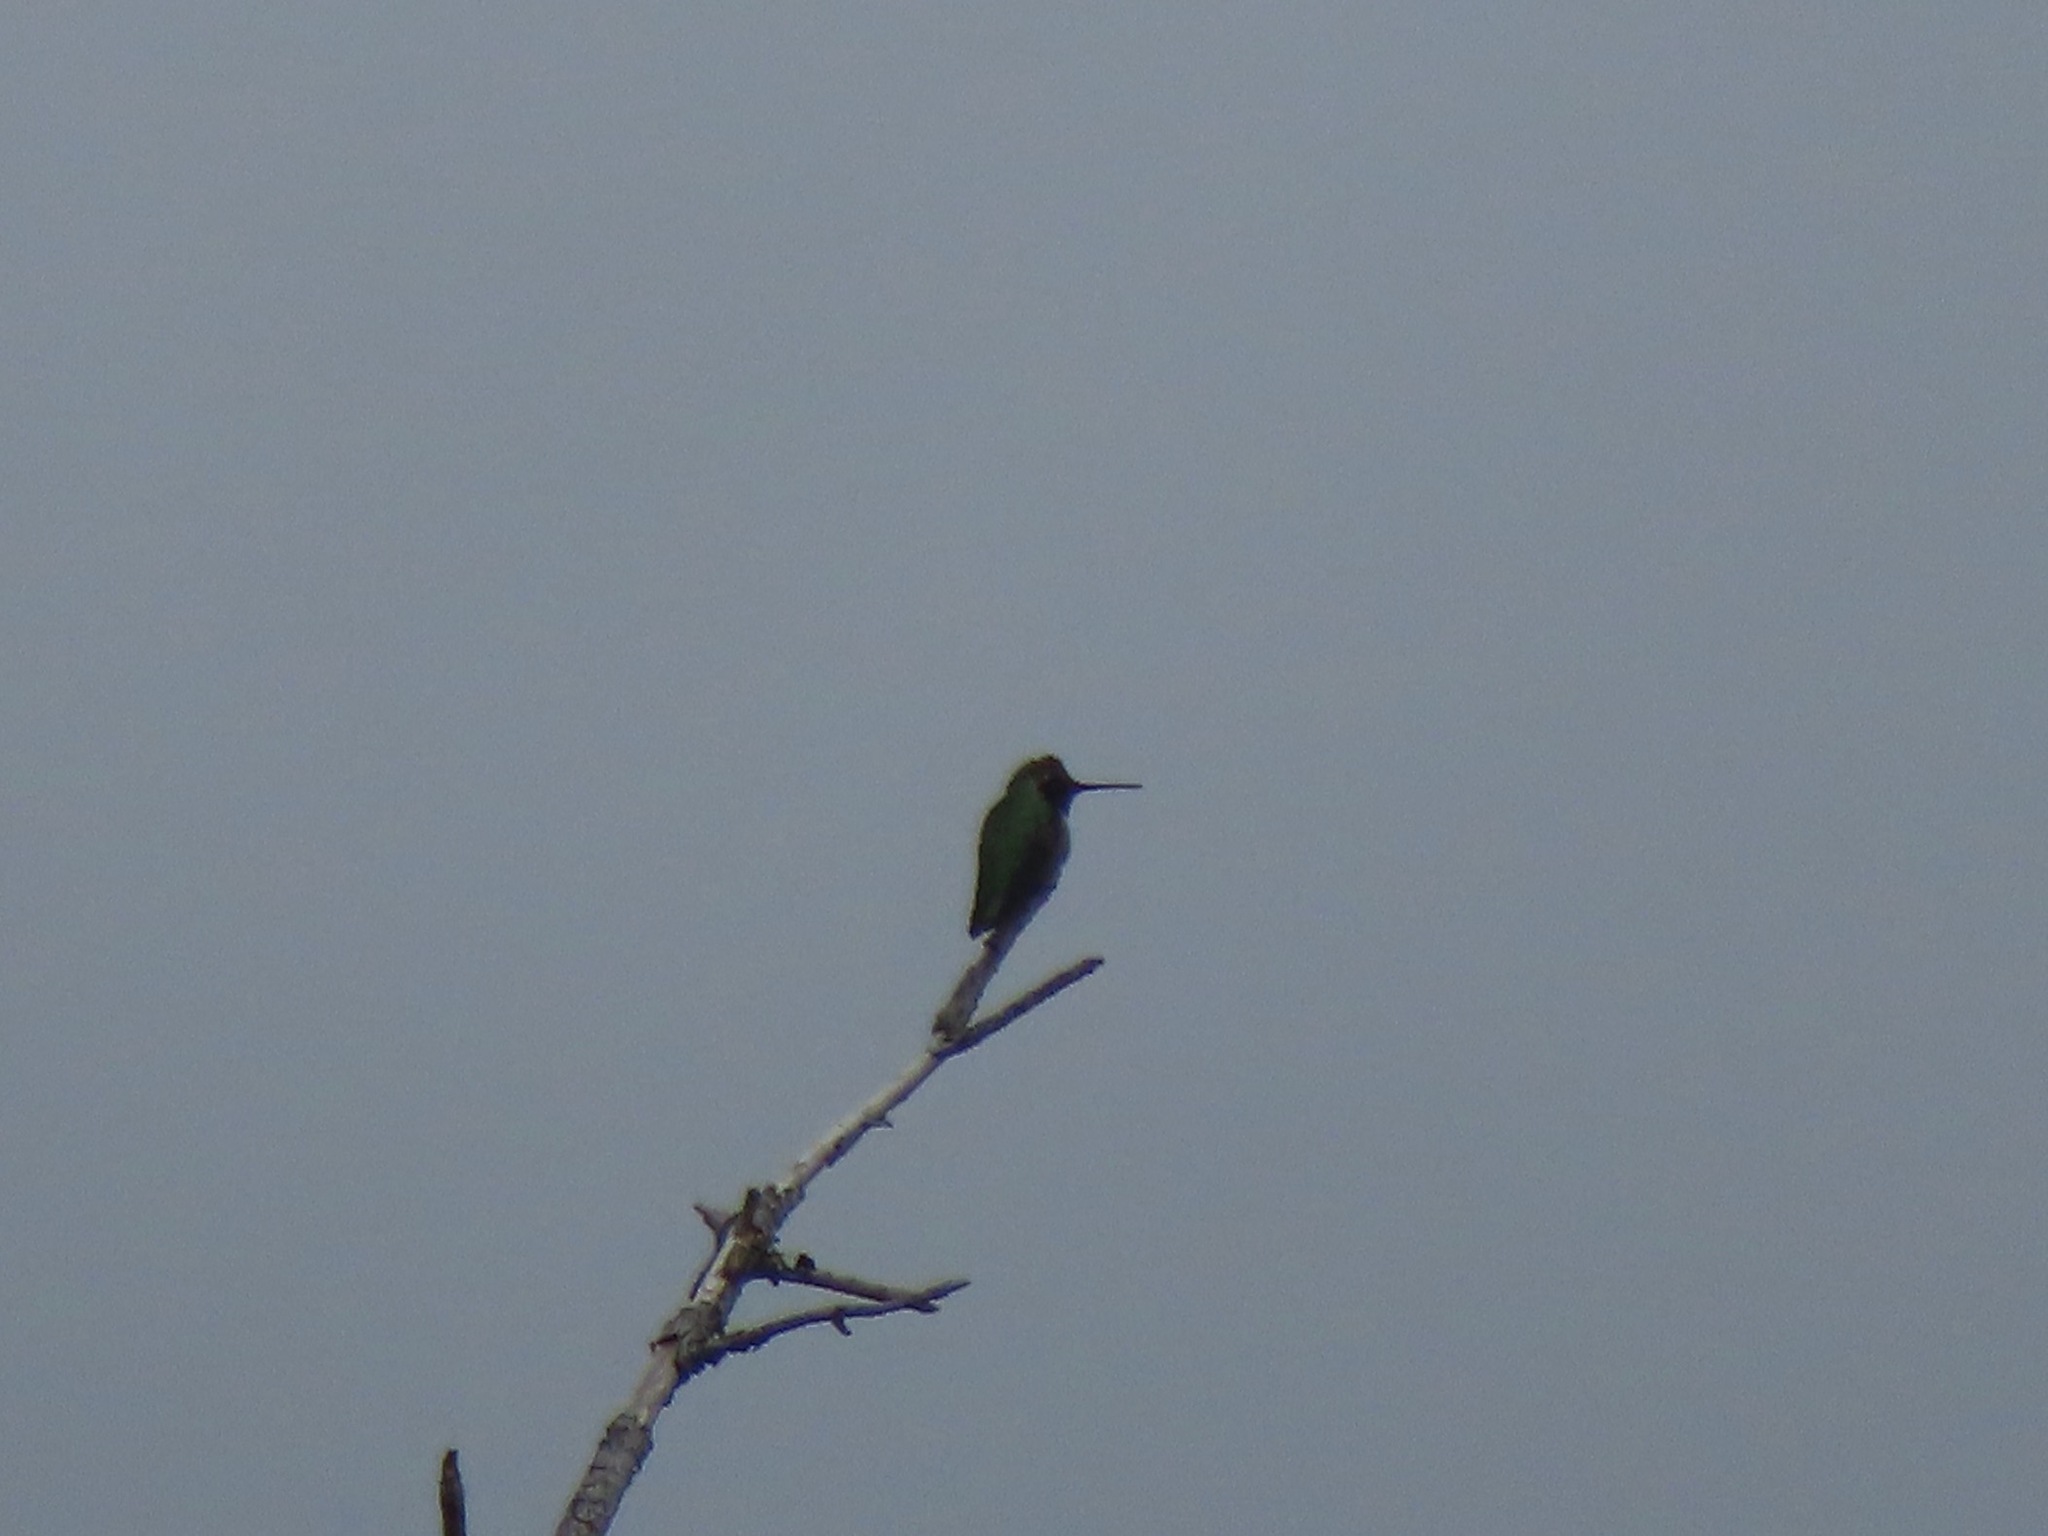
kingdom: Animalia
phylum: Chordata
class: Aves
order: Apodiformes
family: Trochilidae
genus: Calypte
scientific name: Calypte anna
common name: Anna's hummingbird
